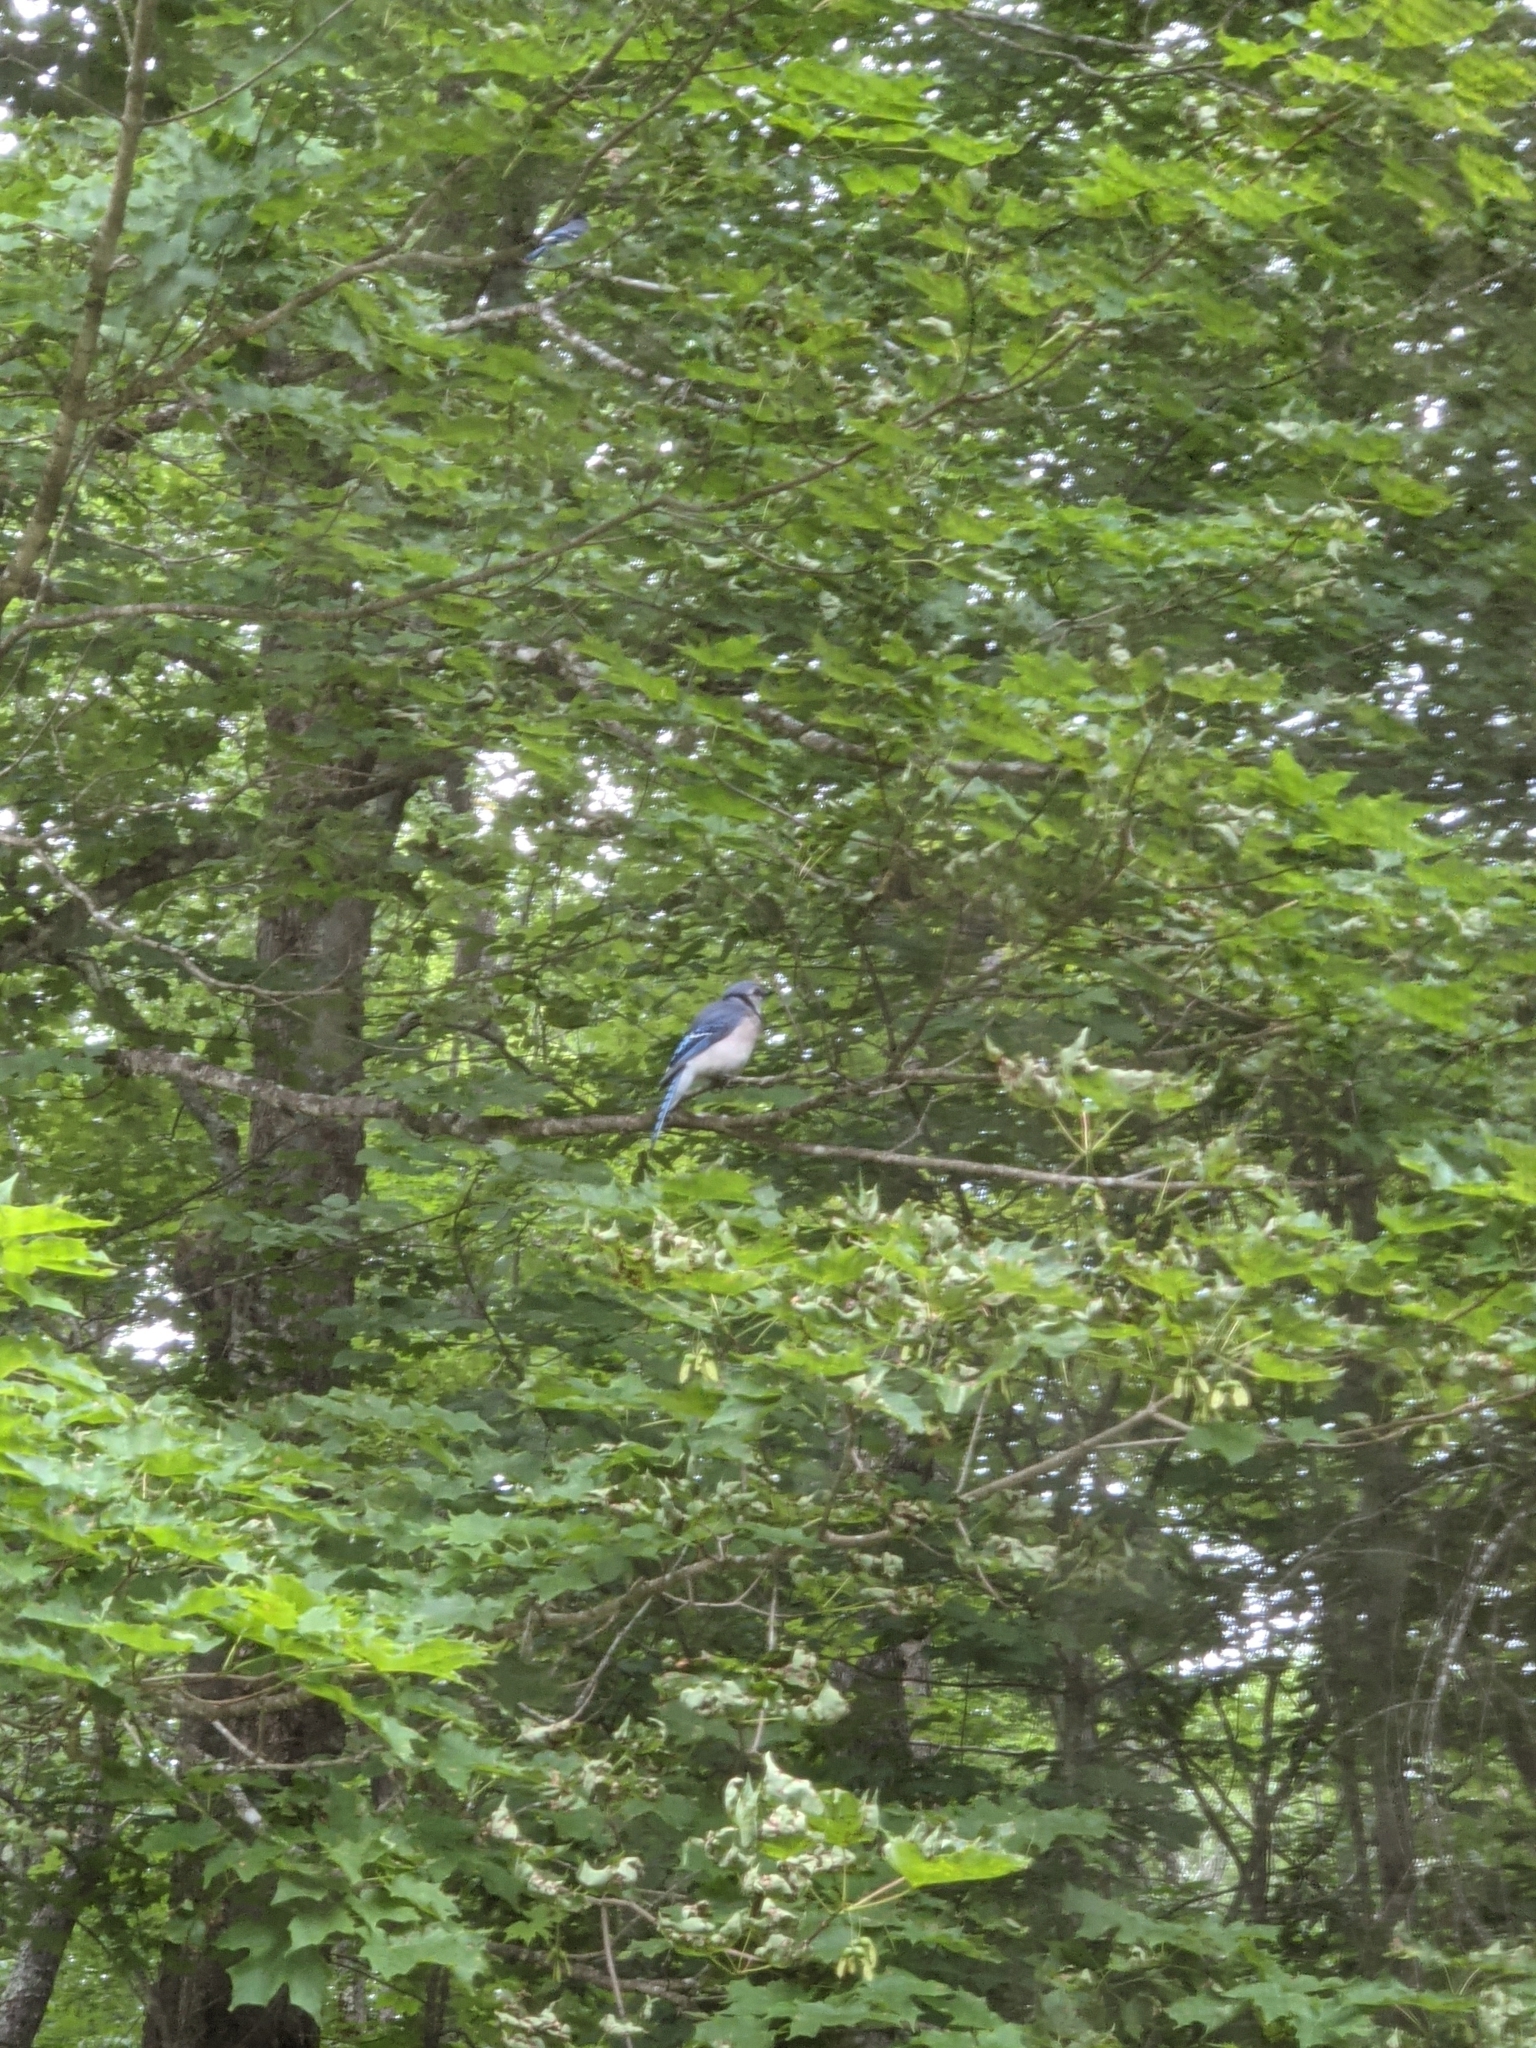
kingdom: Animalia
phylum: Chordata
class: Aves
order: Passeriformes
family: Corvidae
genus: Cyanocitta
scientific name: Cyanocitta cristata
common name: Blue jay
